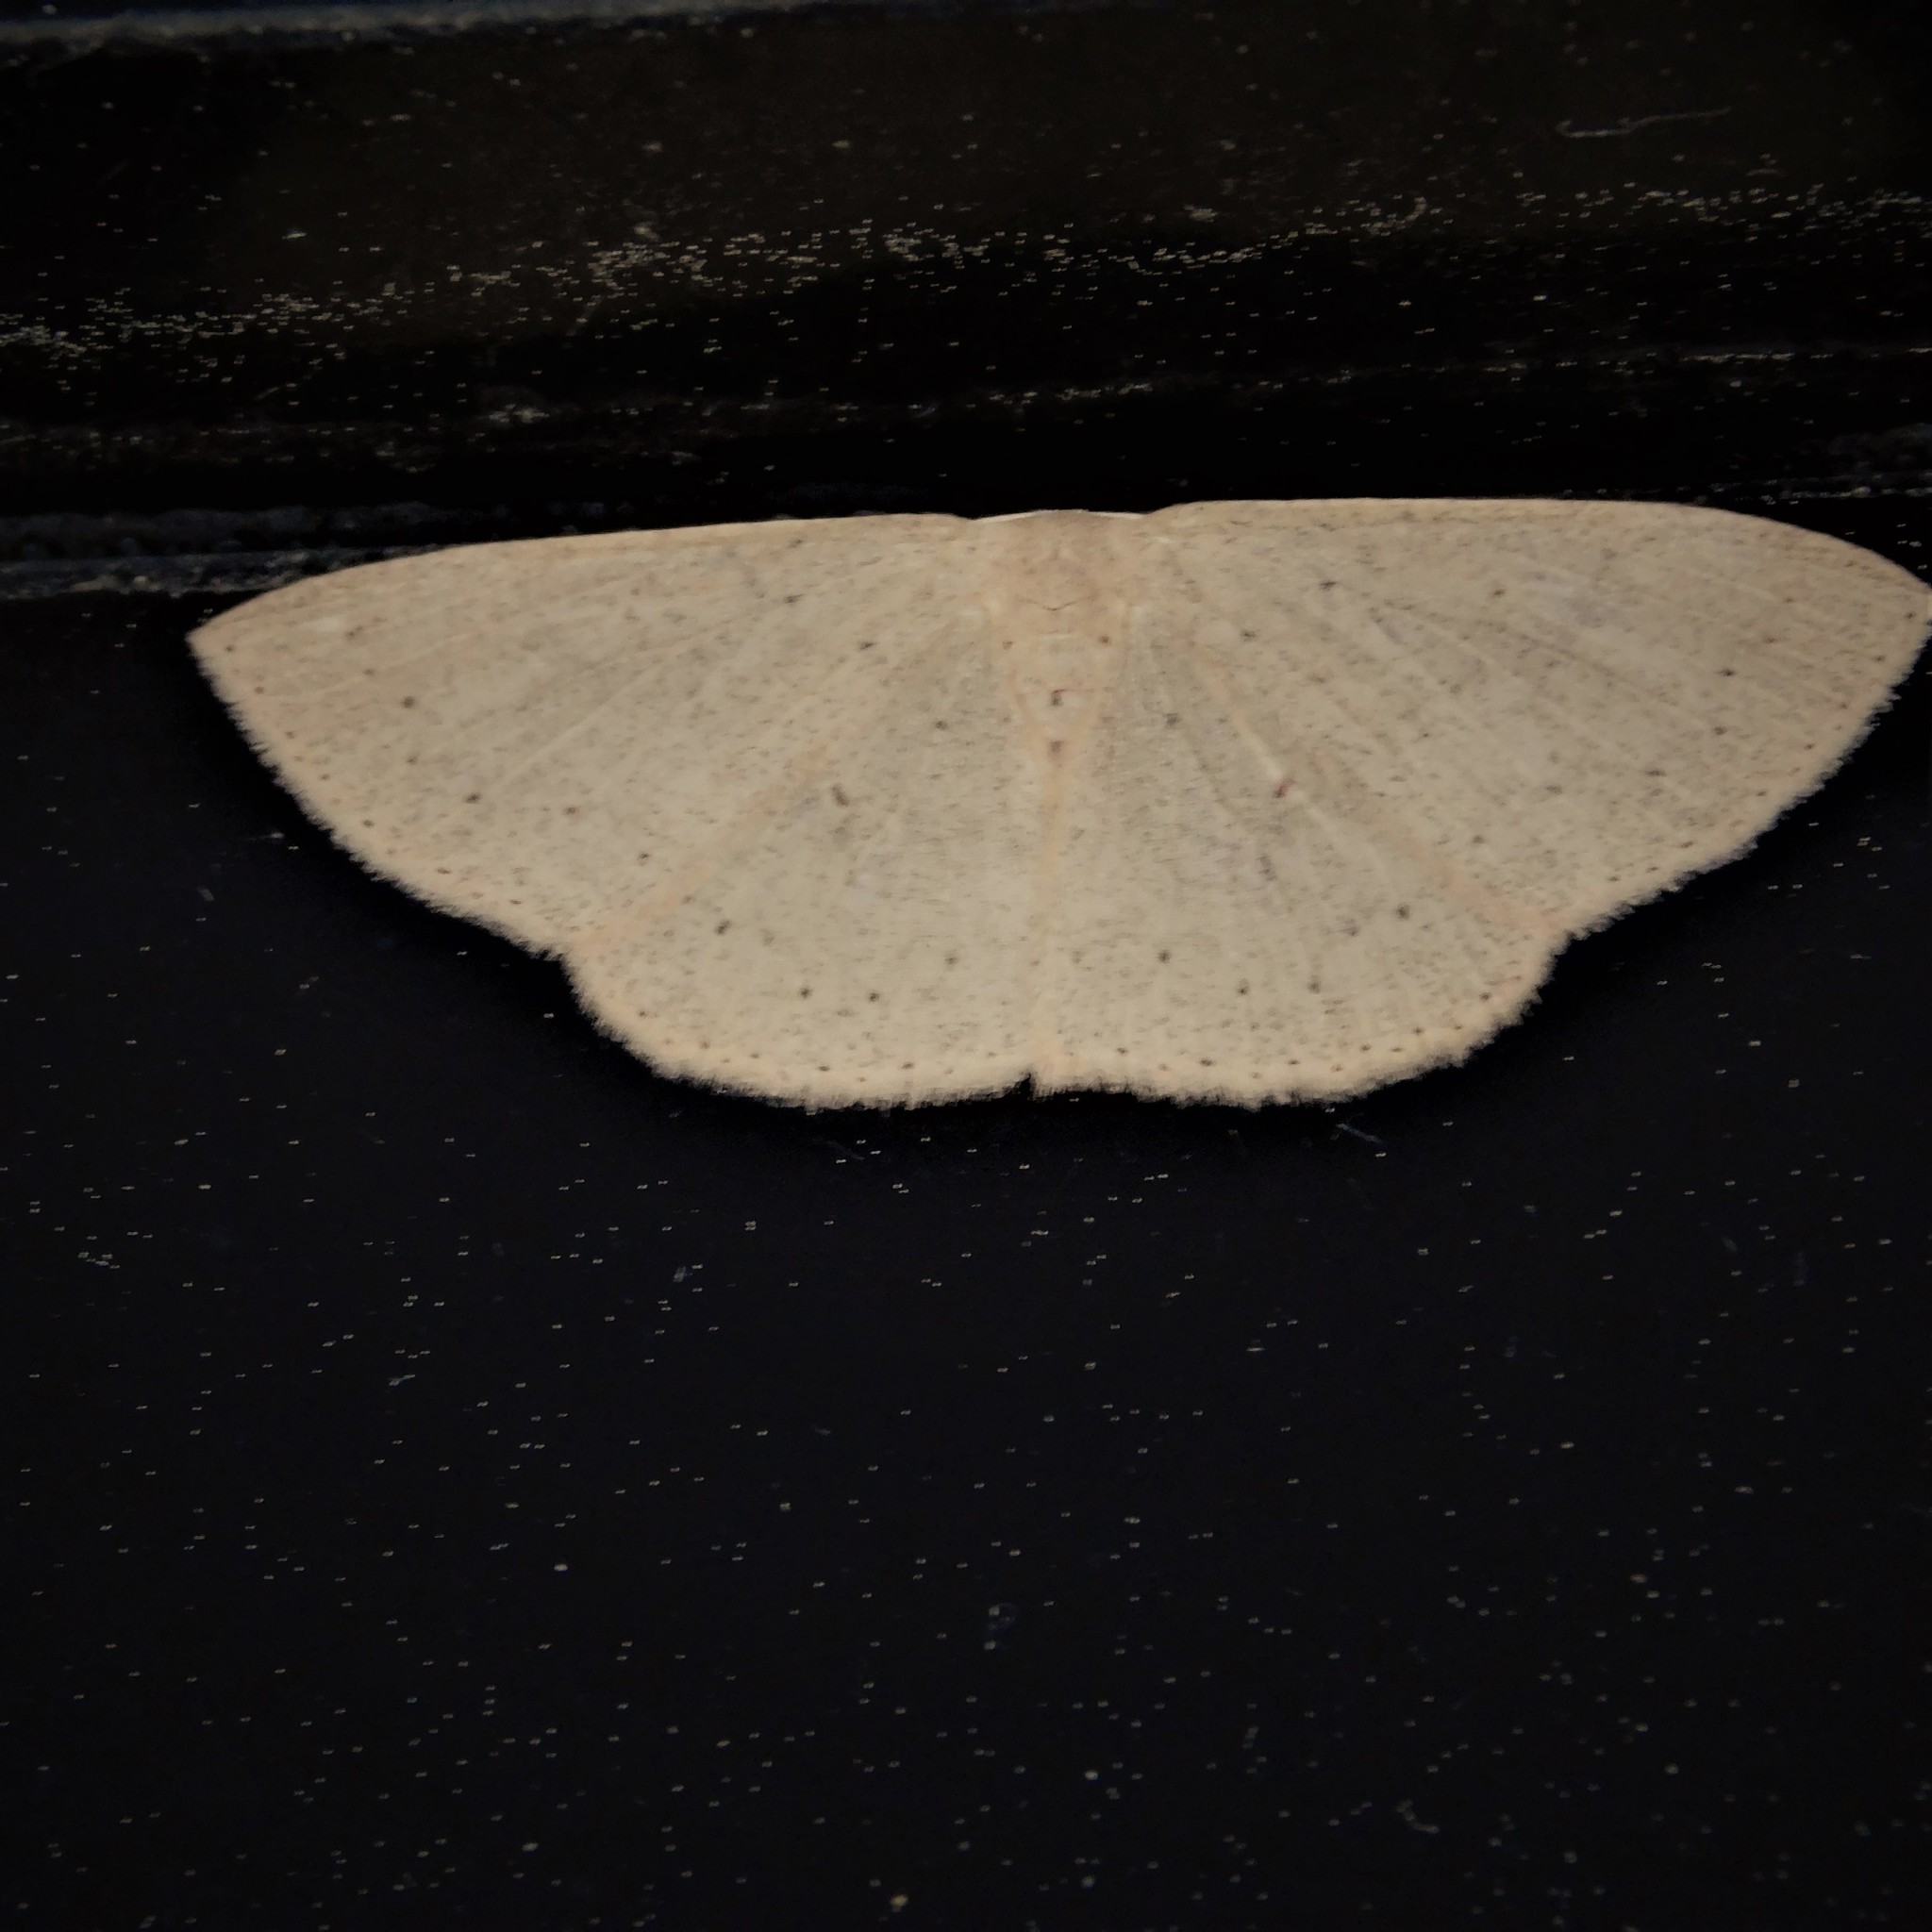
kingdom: Animalia
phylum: Arthropoda
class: Insecta
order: Lepidoptera
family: Geometridae
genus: Cyclophora
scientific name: Cyclophora obstataria
